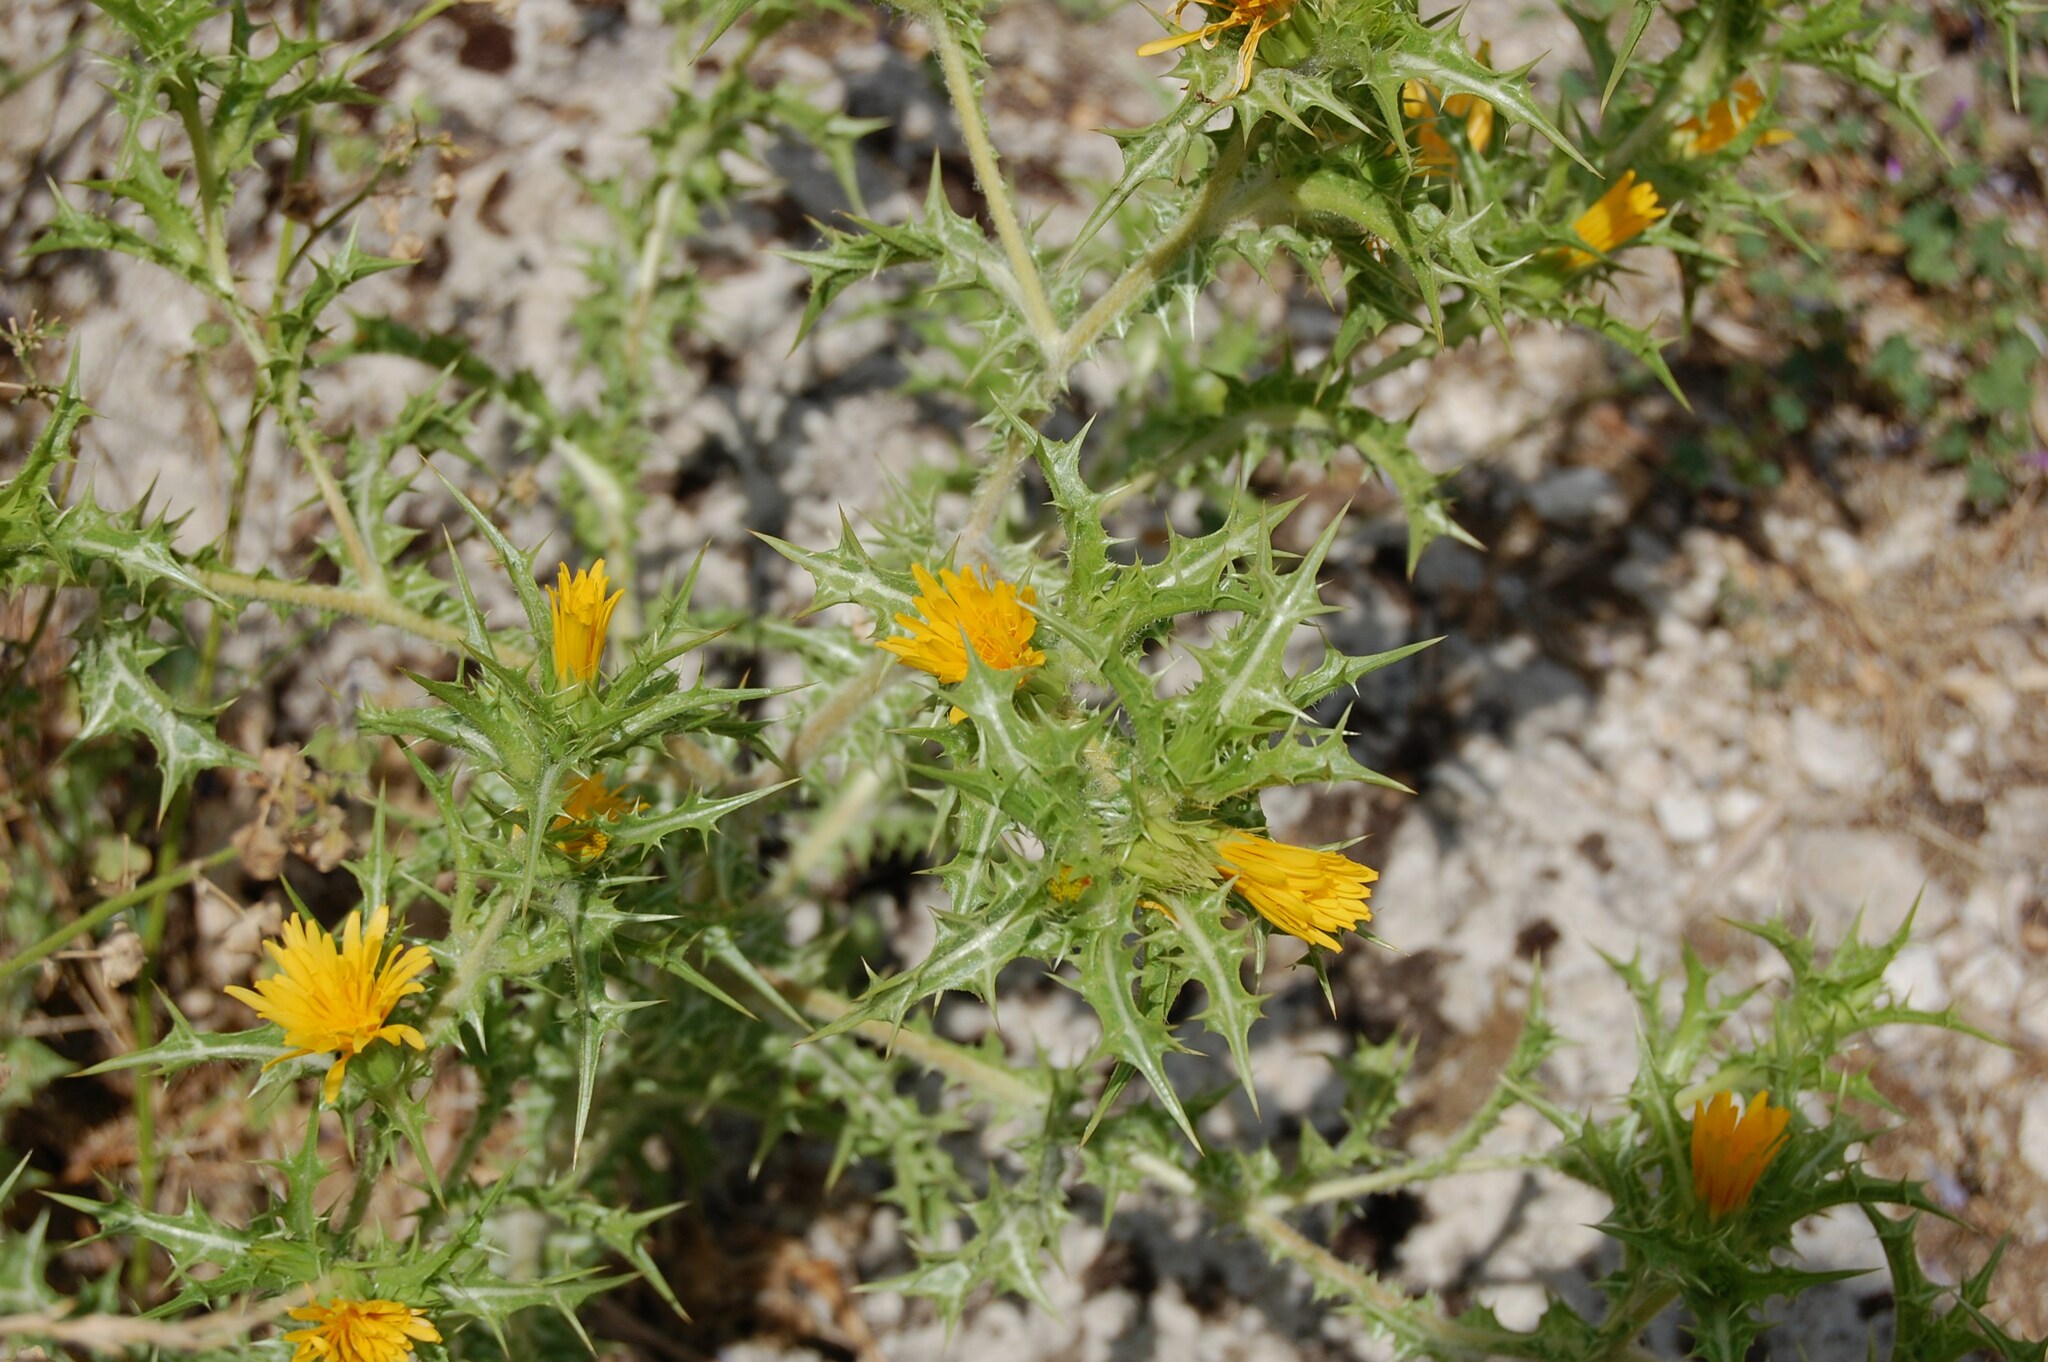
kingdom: Plantae
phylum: Tracheophyta
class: Magnoliopsida
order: Asterales
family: Asteraceae
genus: Scolymus
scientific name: Scolymus hispanicus
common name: Golden thistle
